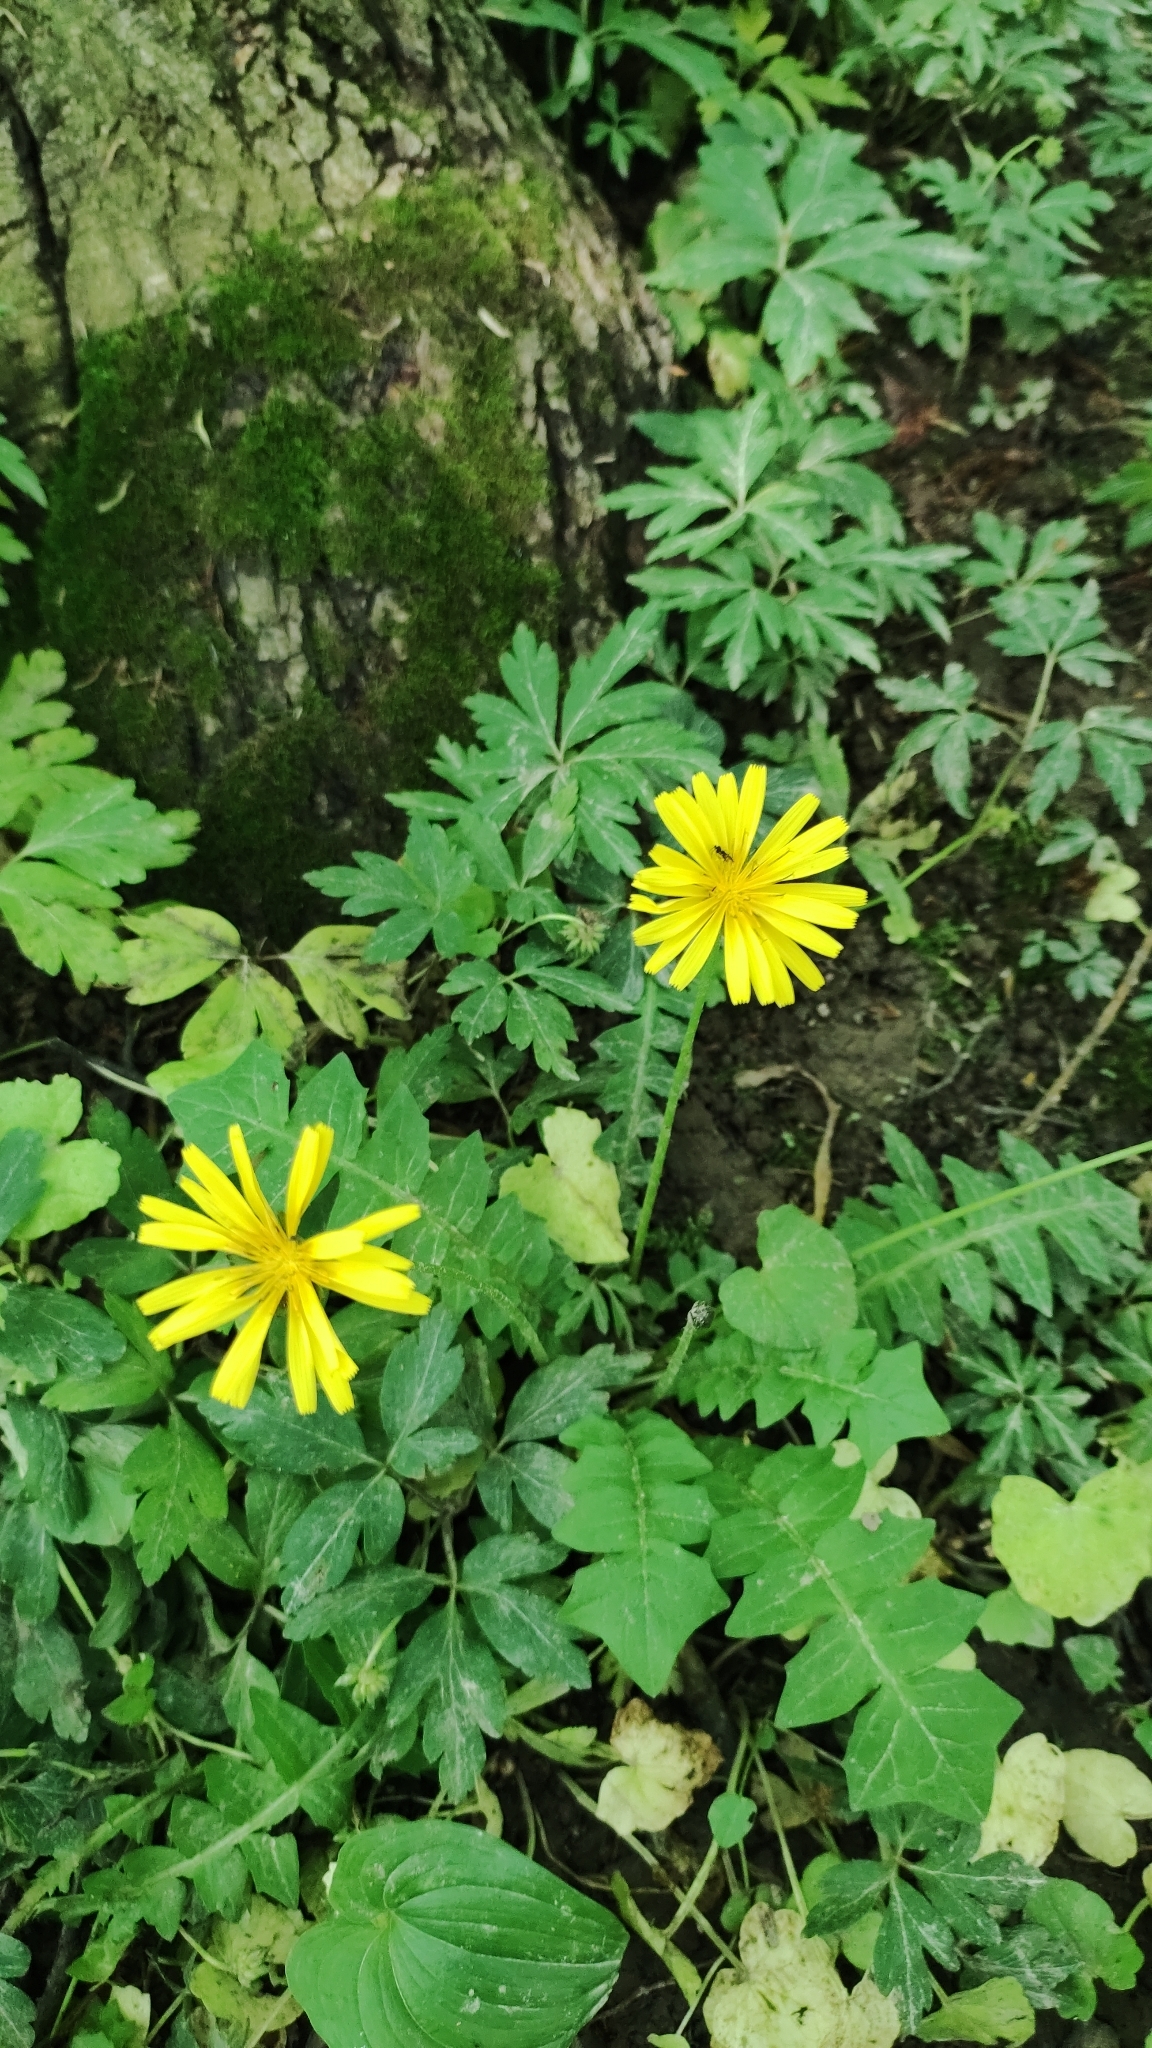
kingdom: Plantae
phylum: Tracheophyta
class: Magnoliopsida
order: Asterales
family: Asteraceae
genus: Aposeris
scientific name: Aposeris foetida
